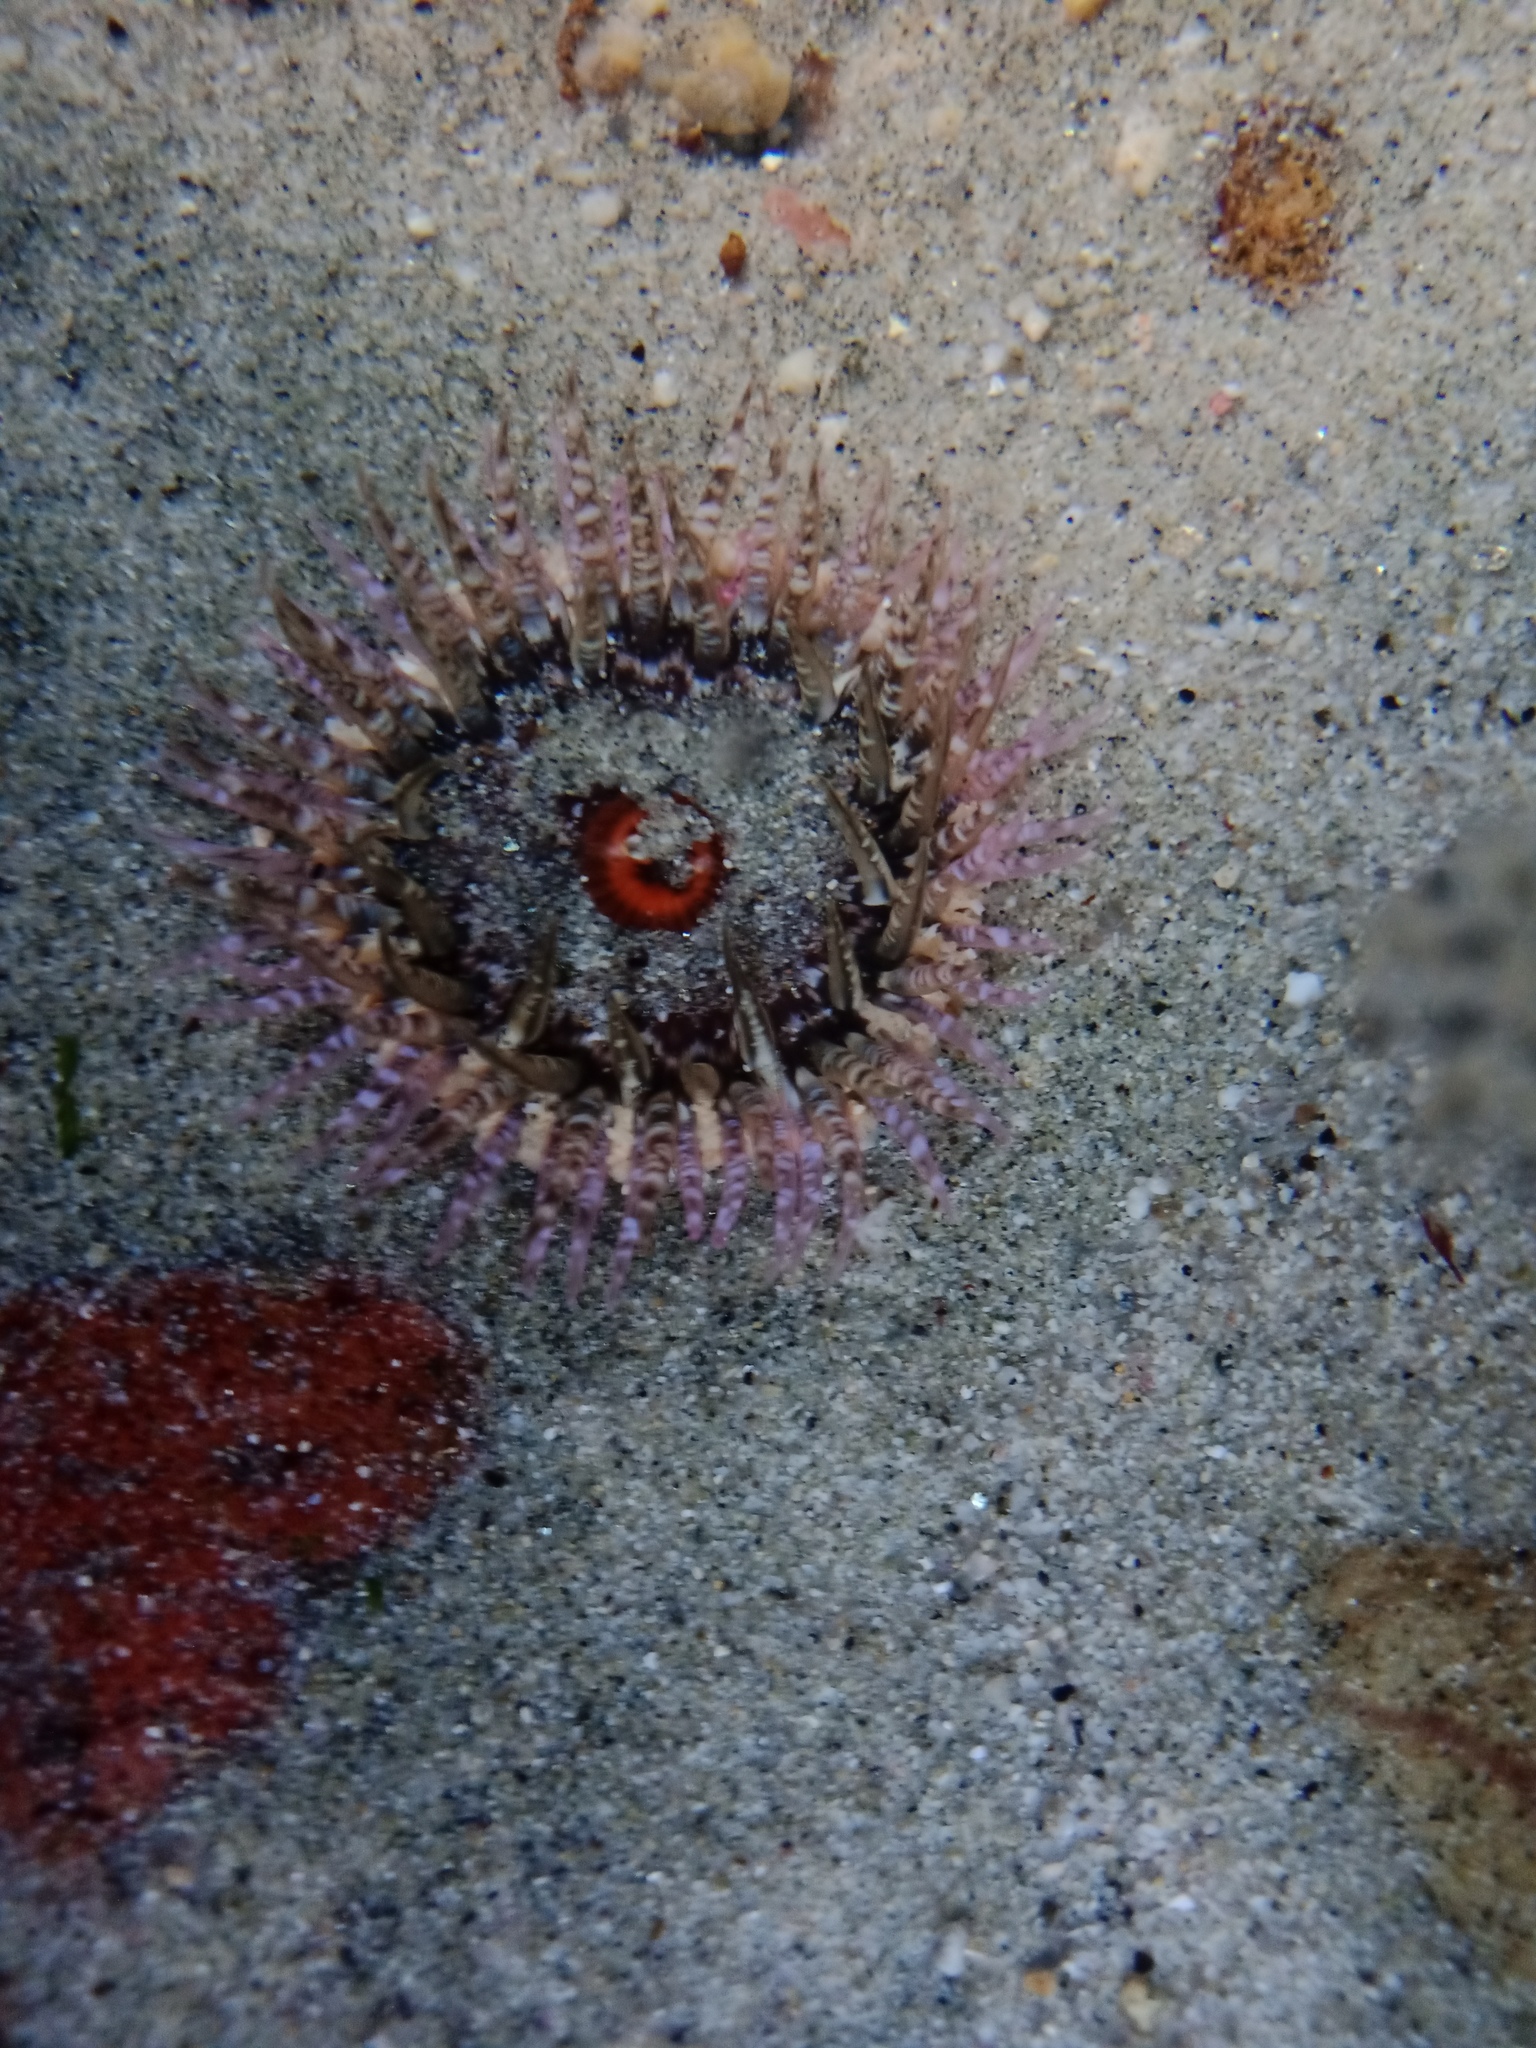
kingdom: Animalia
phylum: Cnidaria
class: Anthozoa
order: Actiniaria
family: Actiniidae
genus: Oulactis
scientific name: Oulactis muscosa
